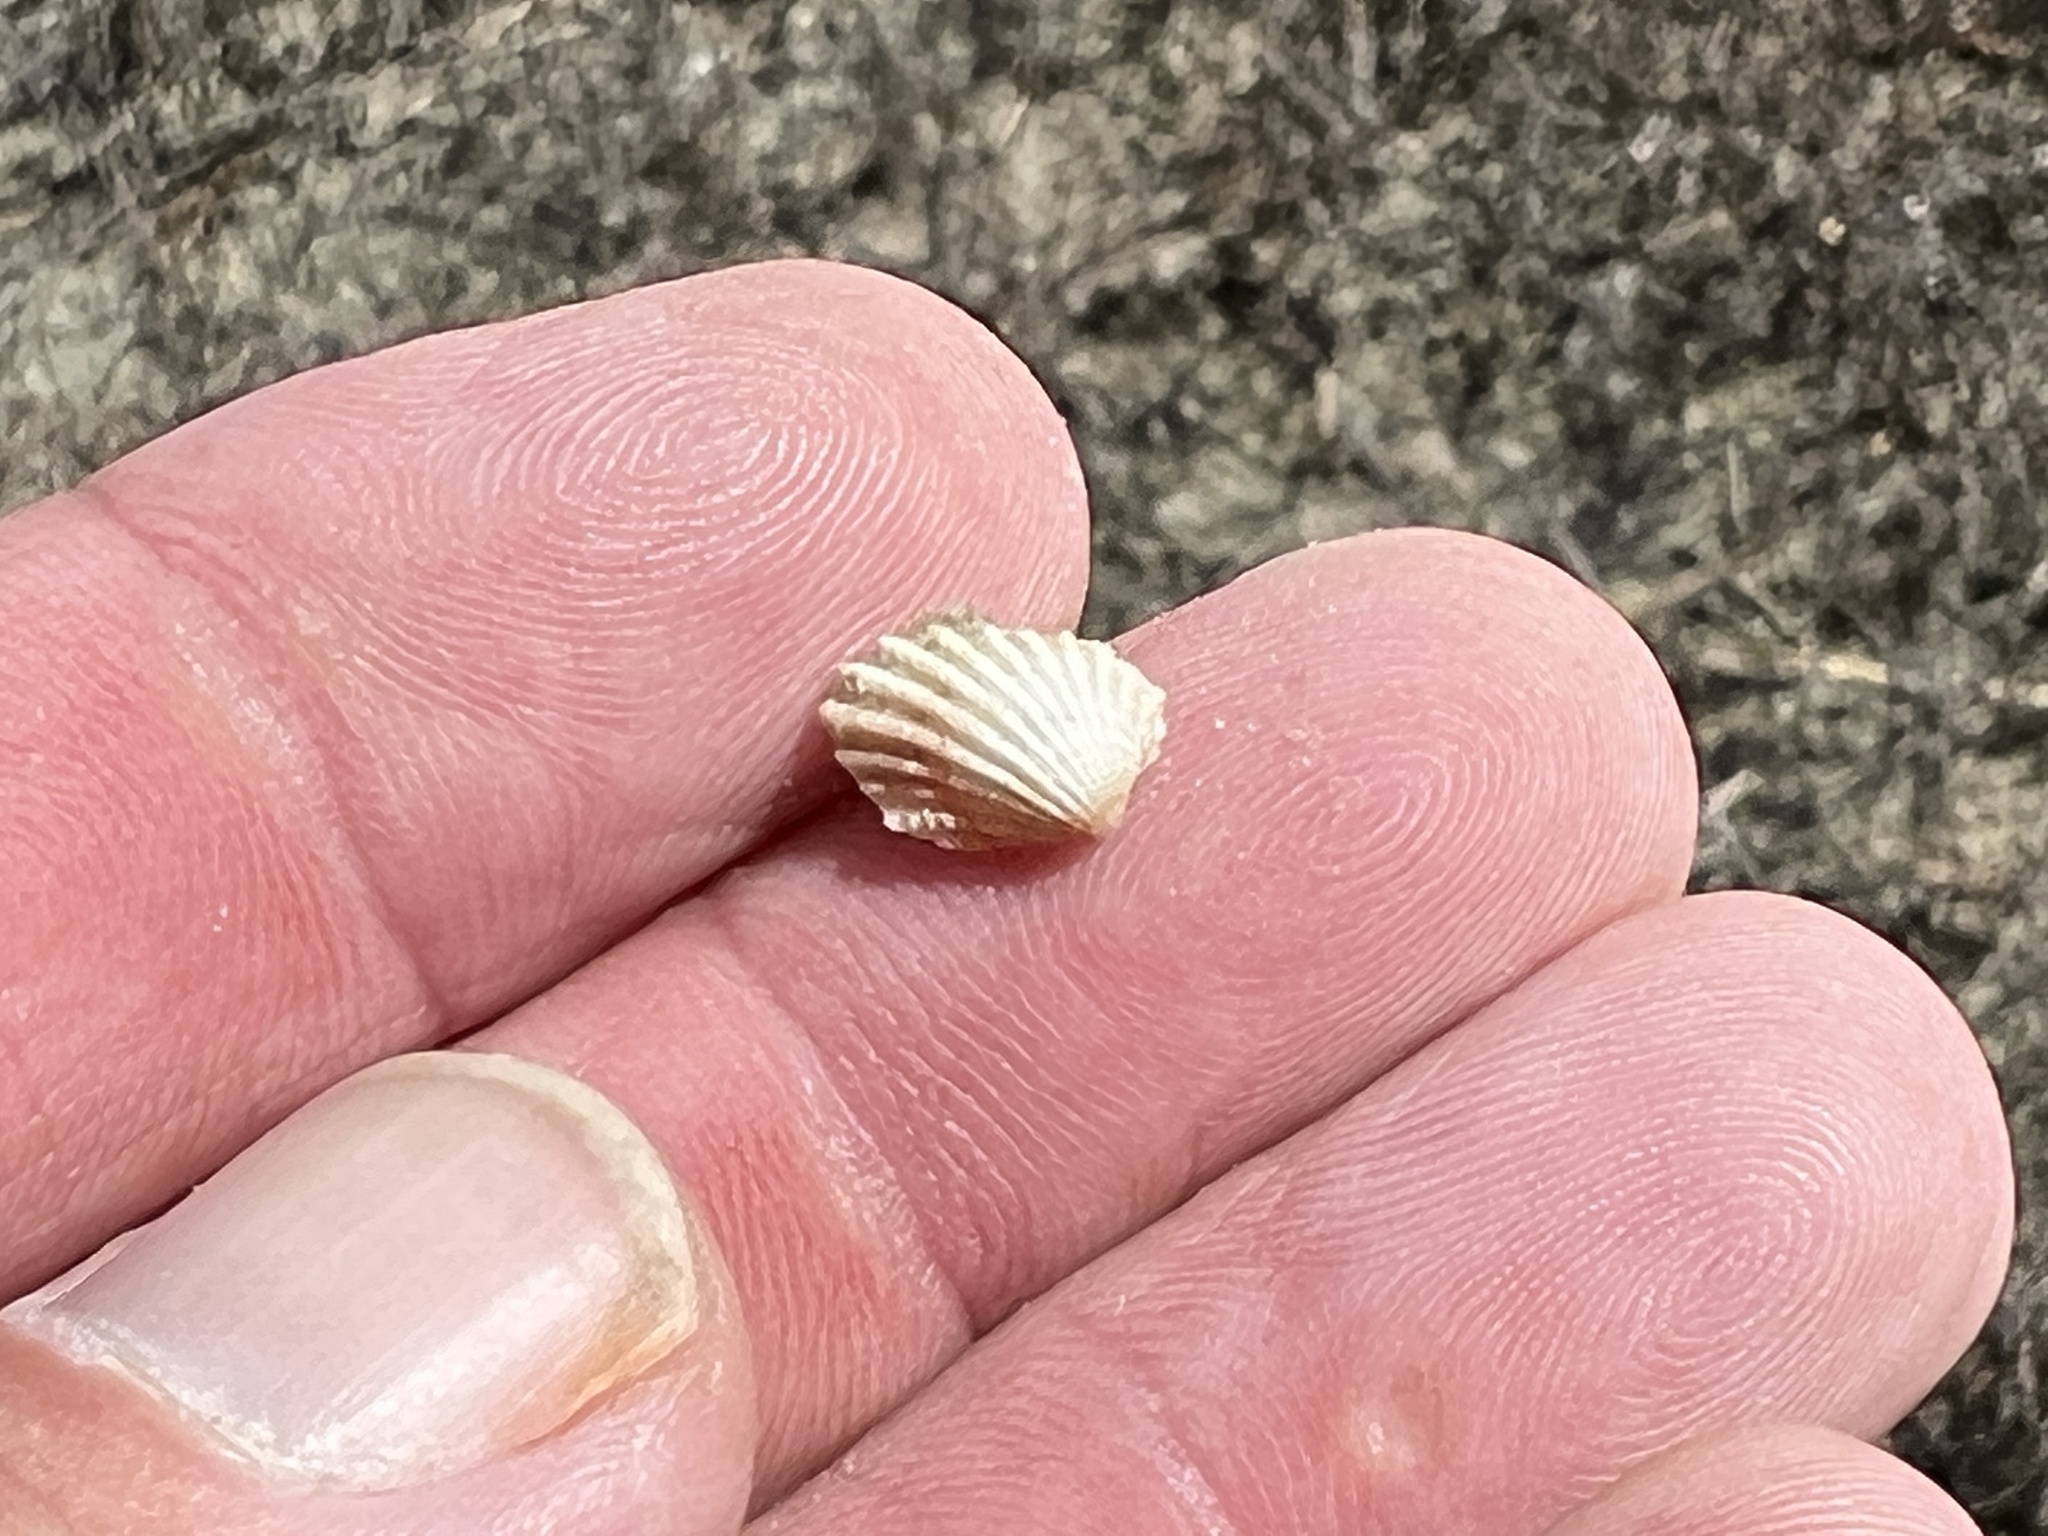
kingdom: Animalia
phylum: Mollusca
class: Bivalvia
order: Carditida
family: Carditidae
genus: Cardites
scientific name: Cardites floridanus
